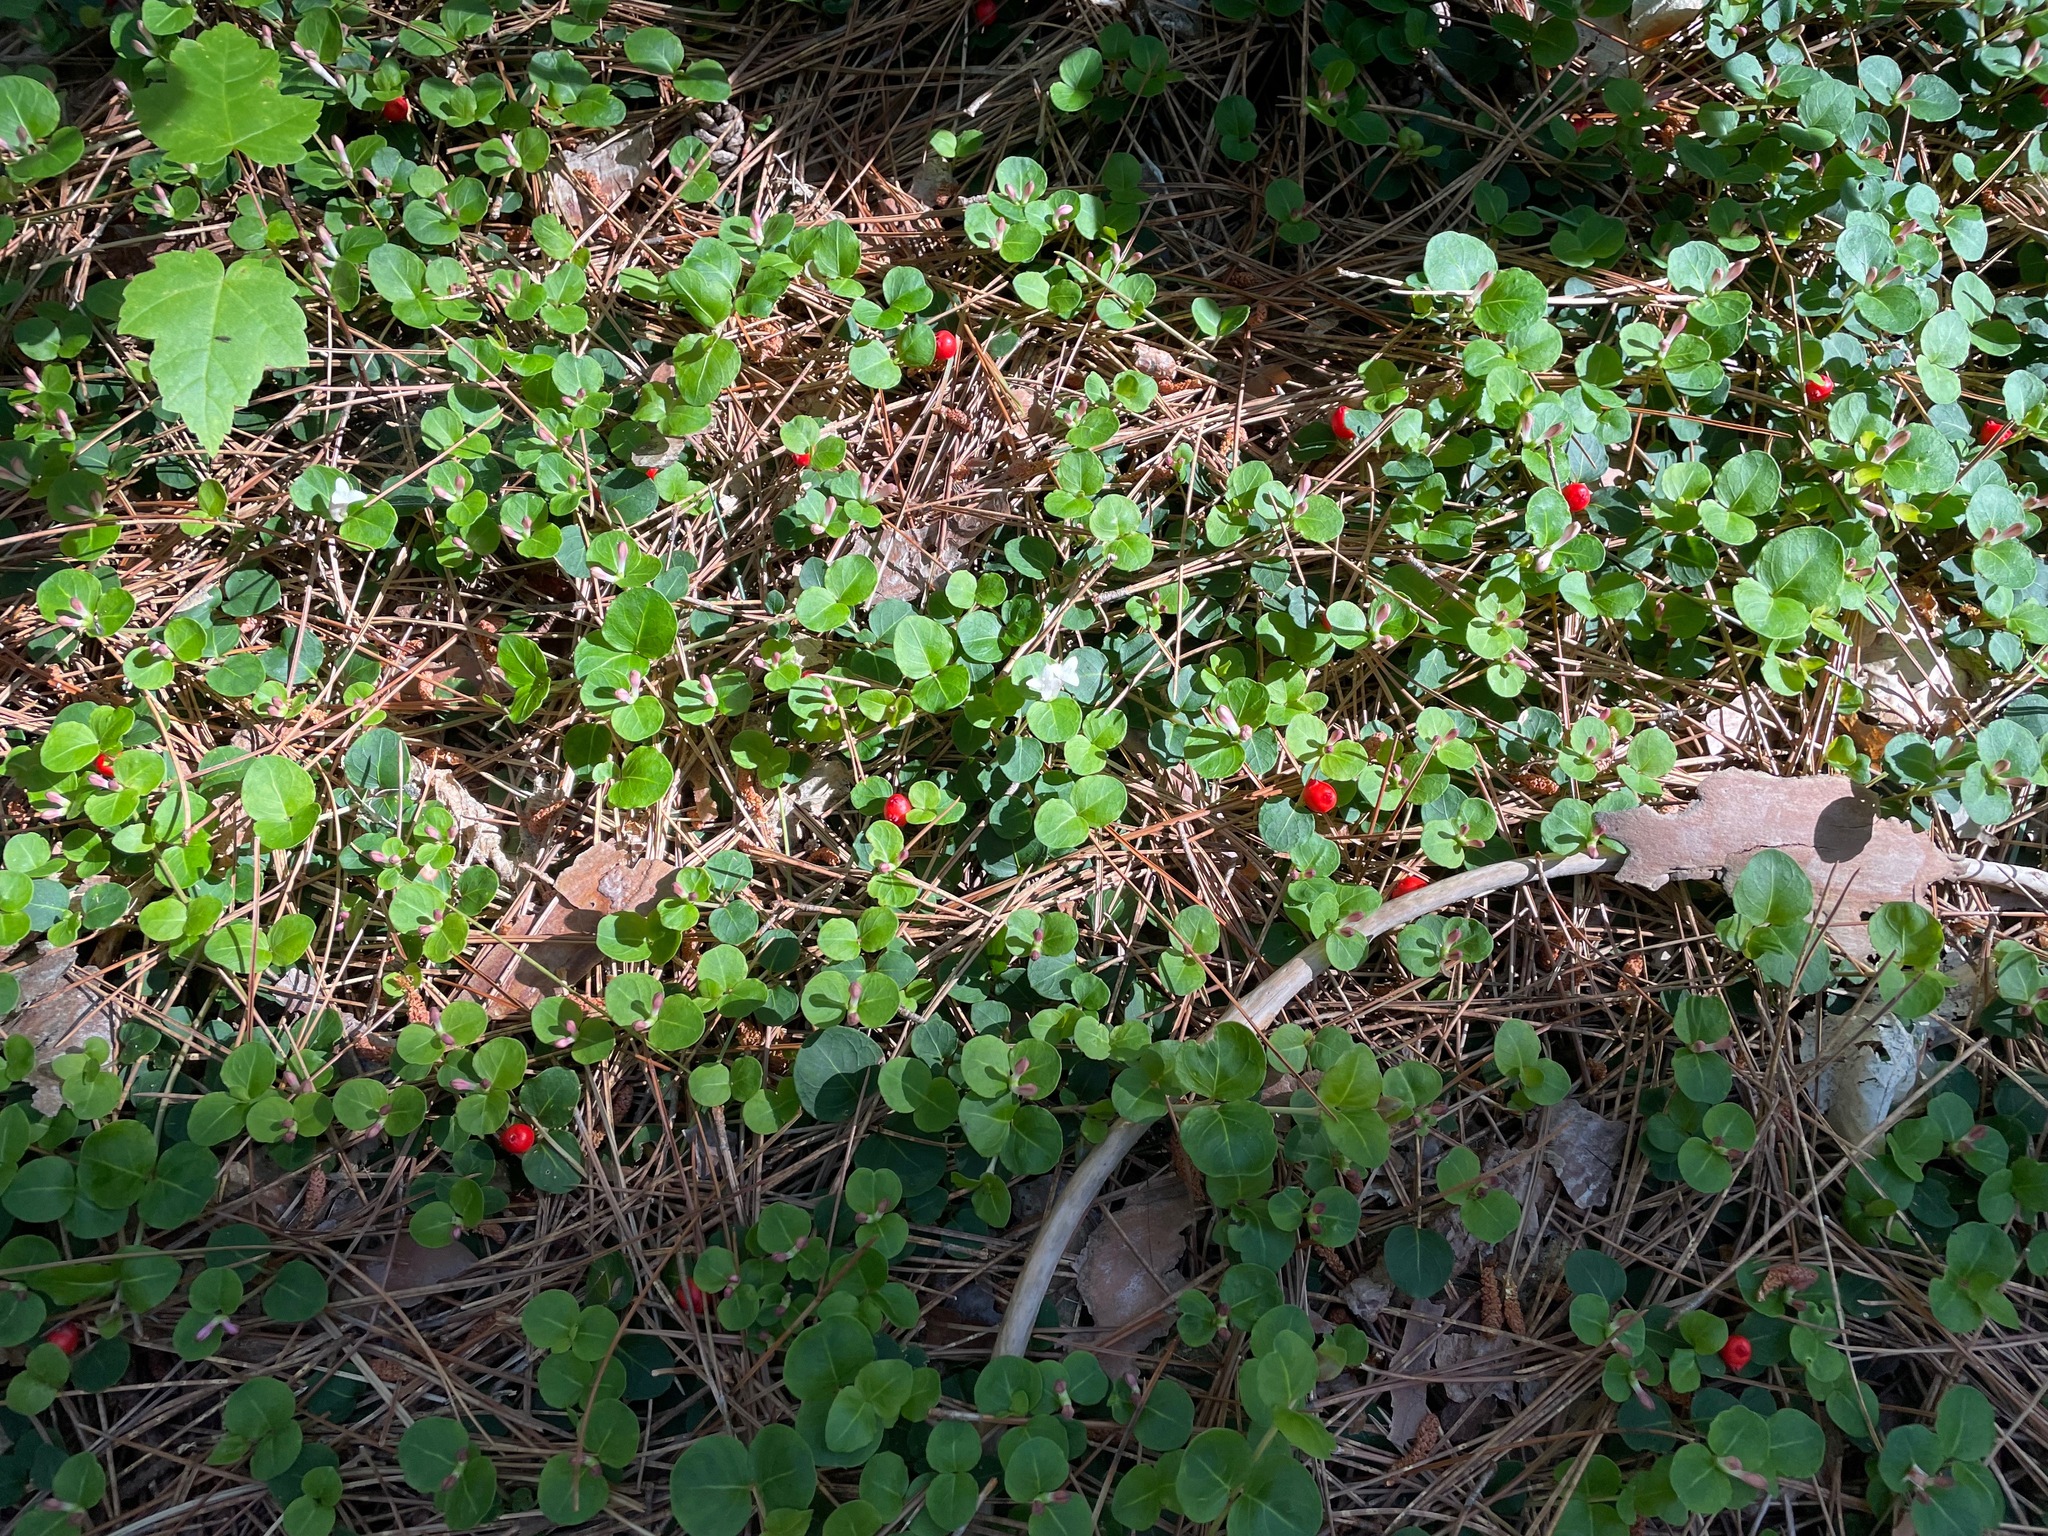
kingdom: Plantae
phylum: Tracheophyta
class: Magnoliopsida
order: Gentianales
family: Rubiaceae
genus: Mitchella
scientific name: Mitchella repens
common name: Partridge-berry
